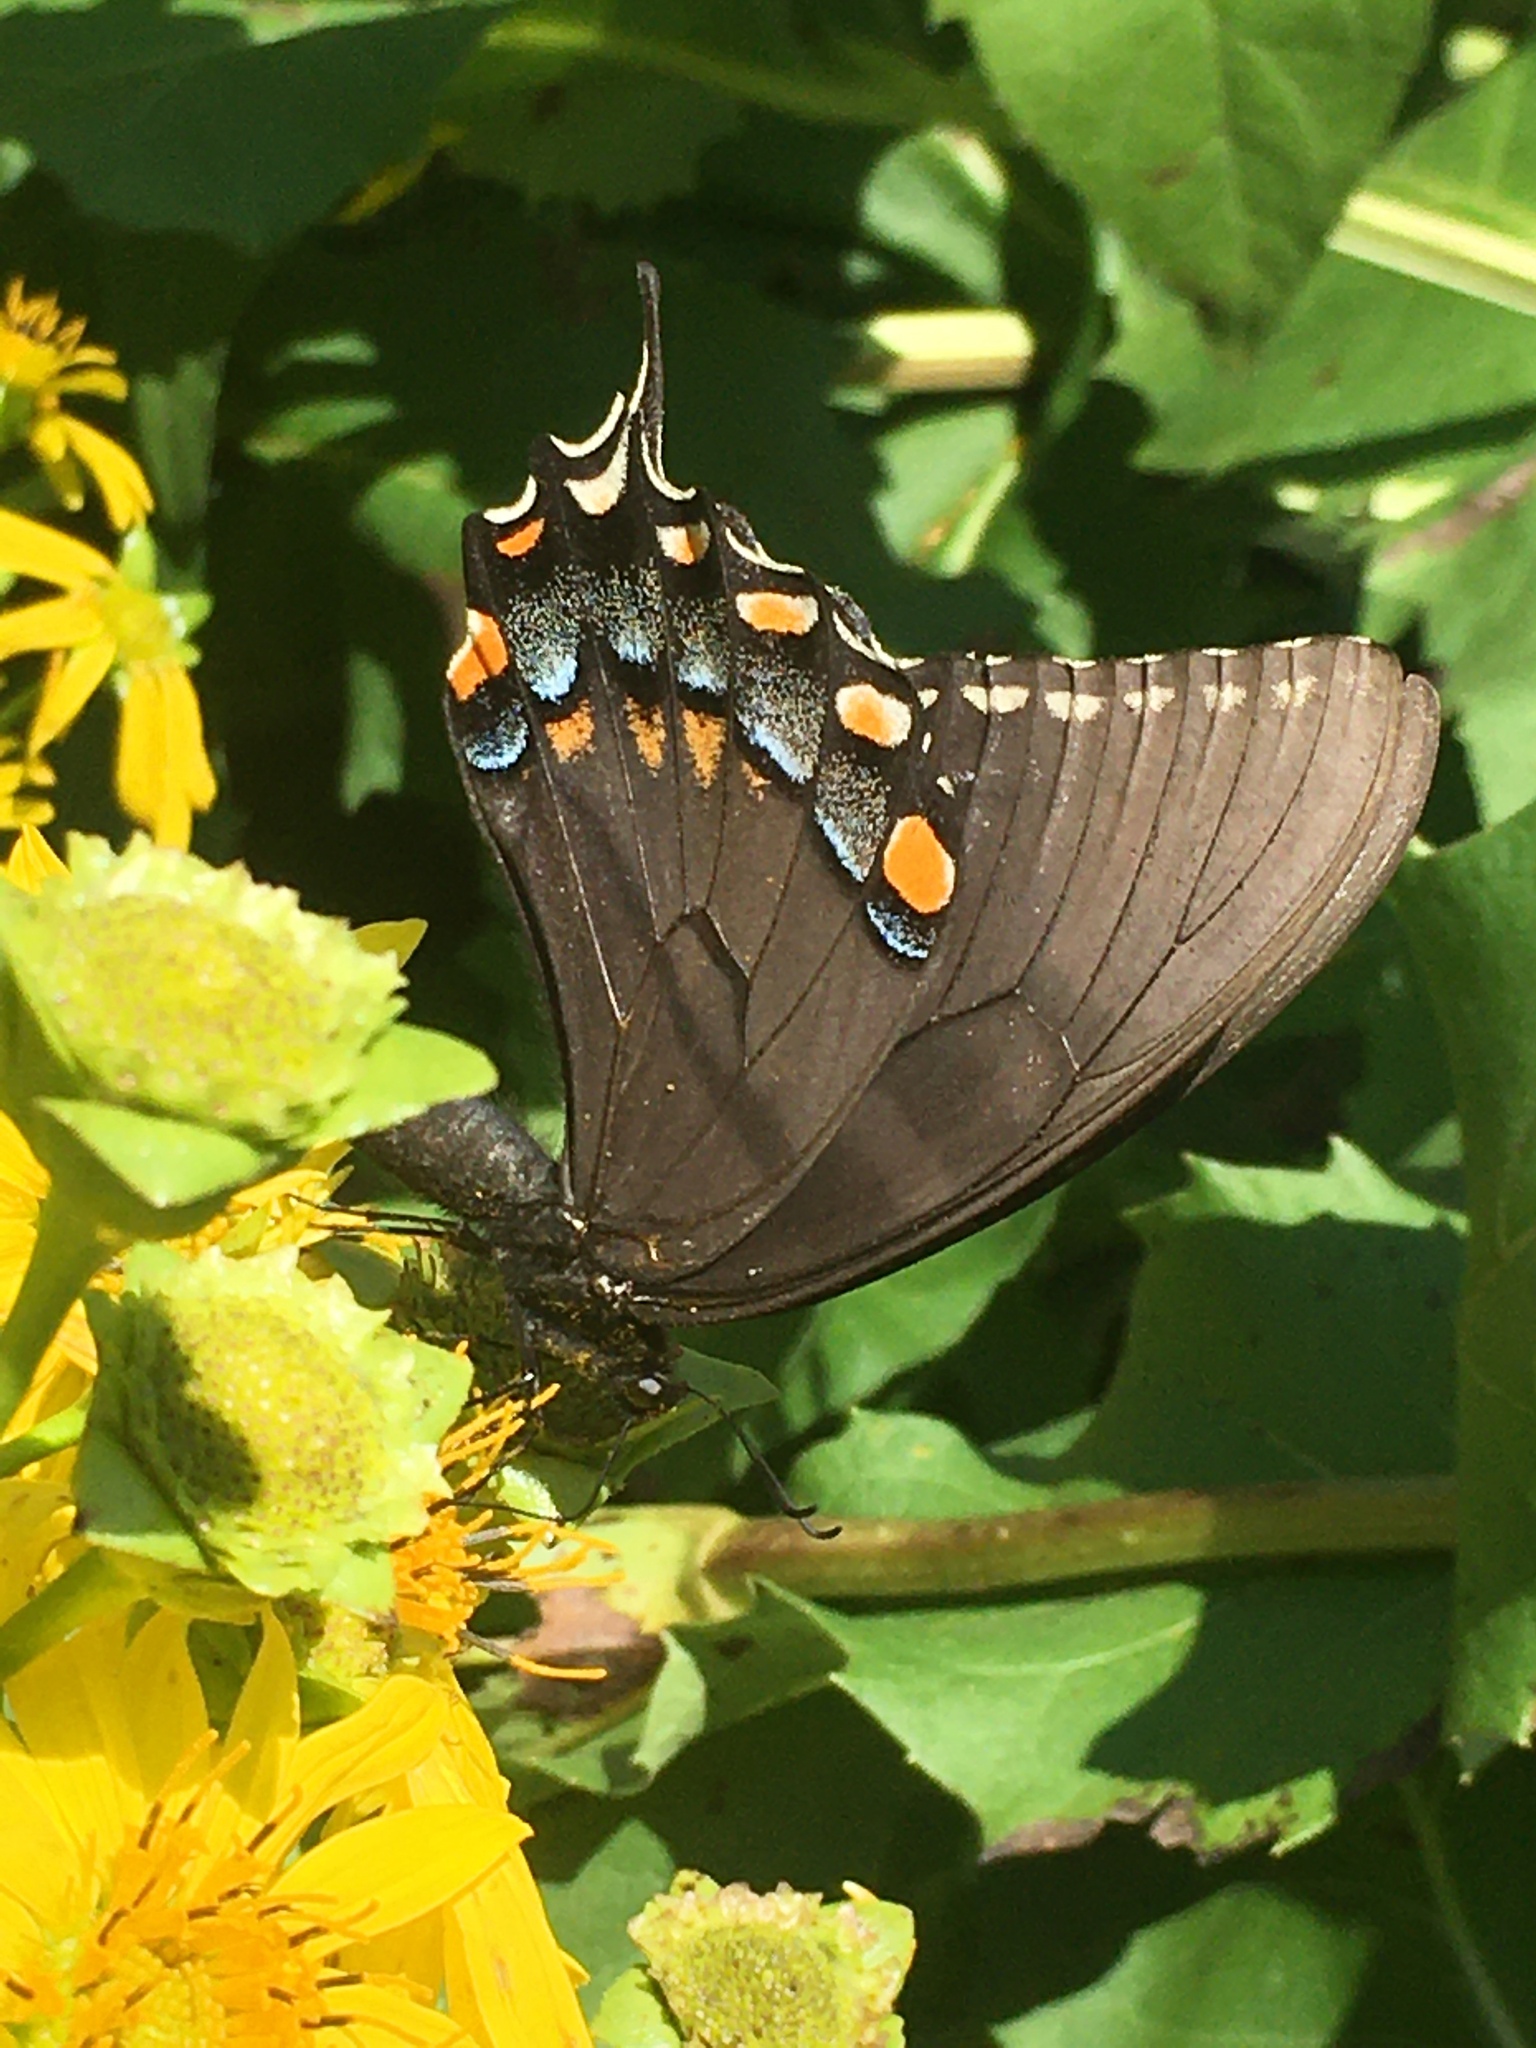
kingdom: Animalia
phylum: Arthropoda
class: Insecta
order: Lepidoptera
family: Papilionidae
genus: Papilio
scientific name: Papilio glaucus
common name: Tiger swallowtail
